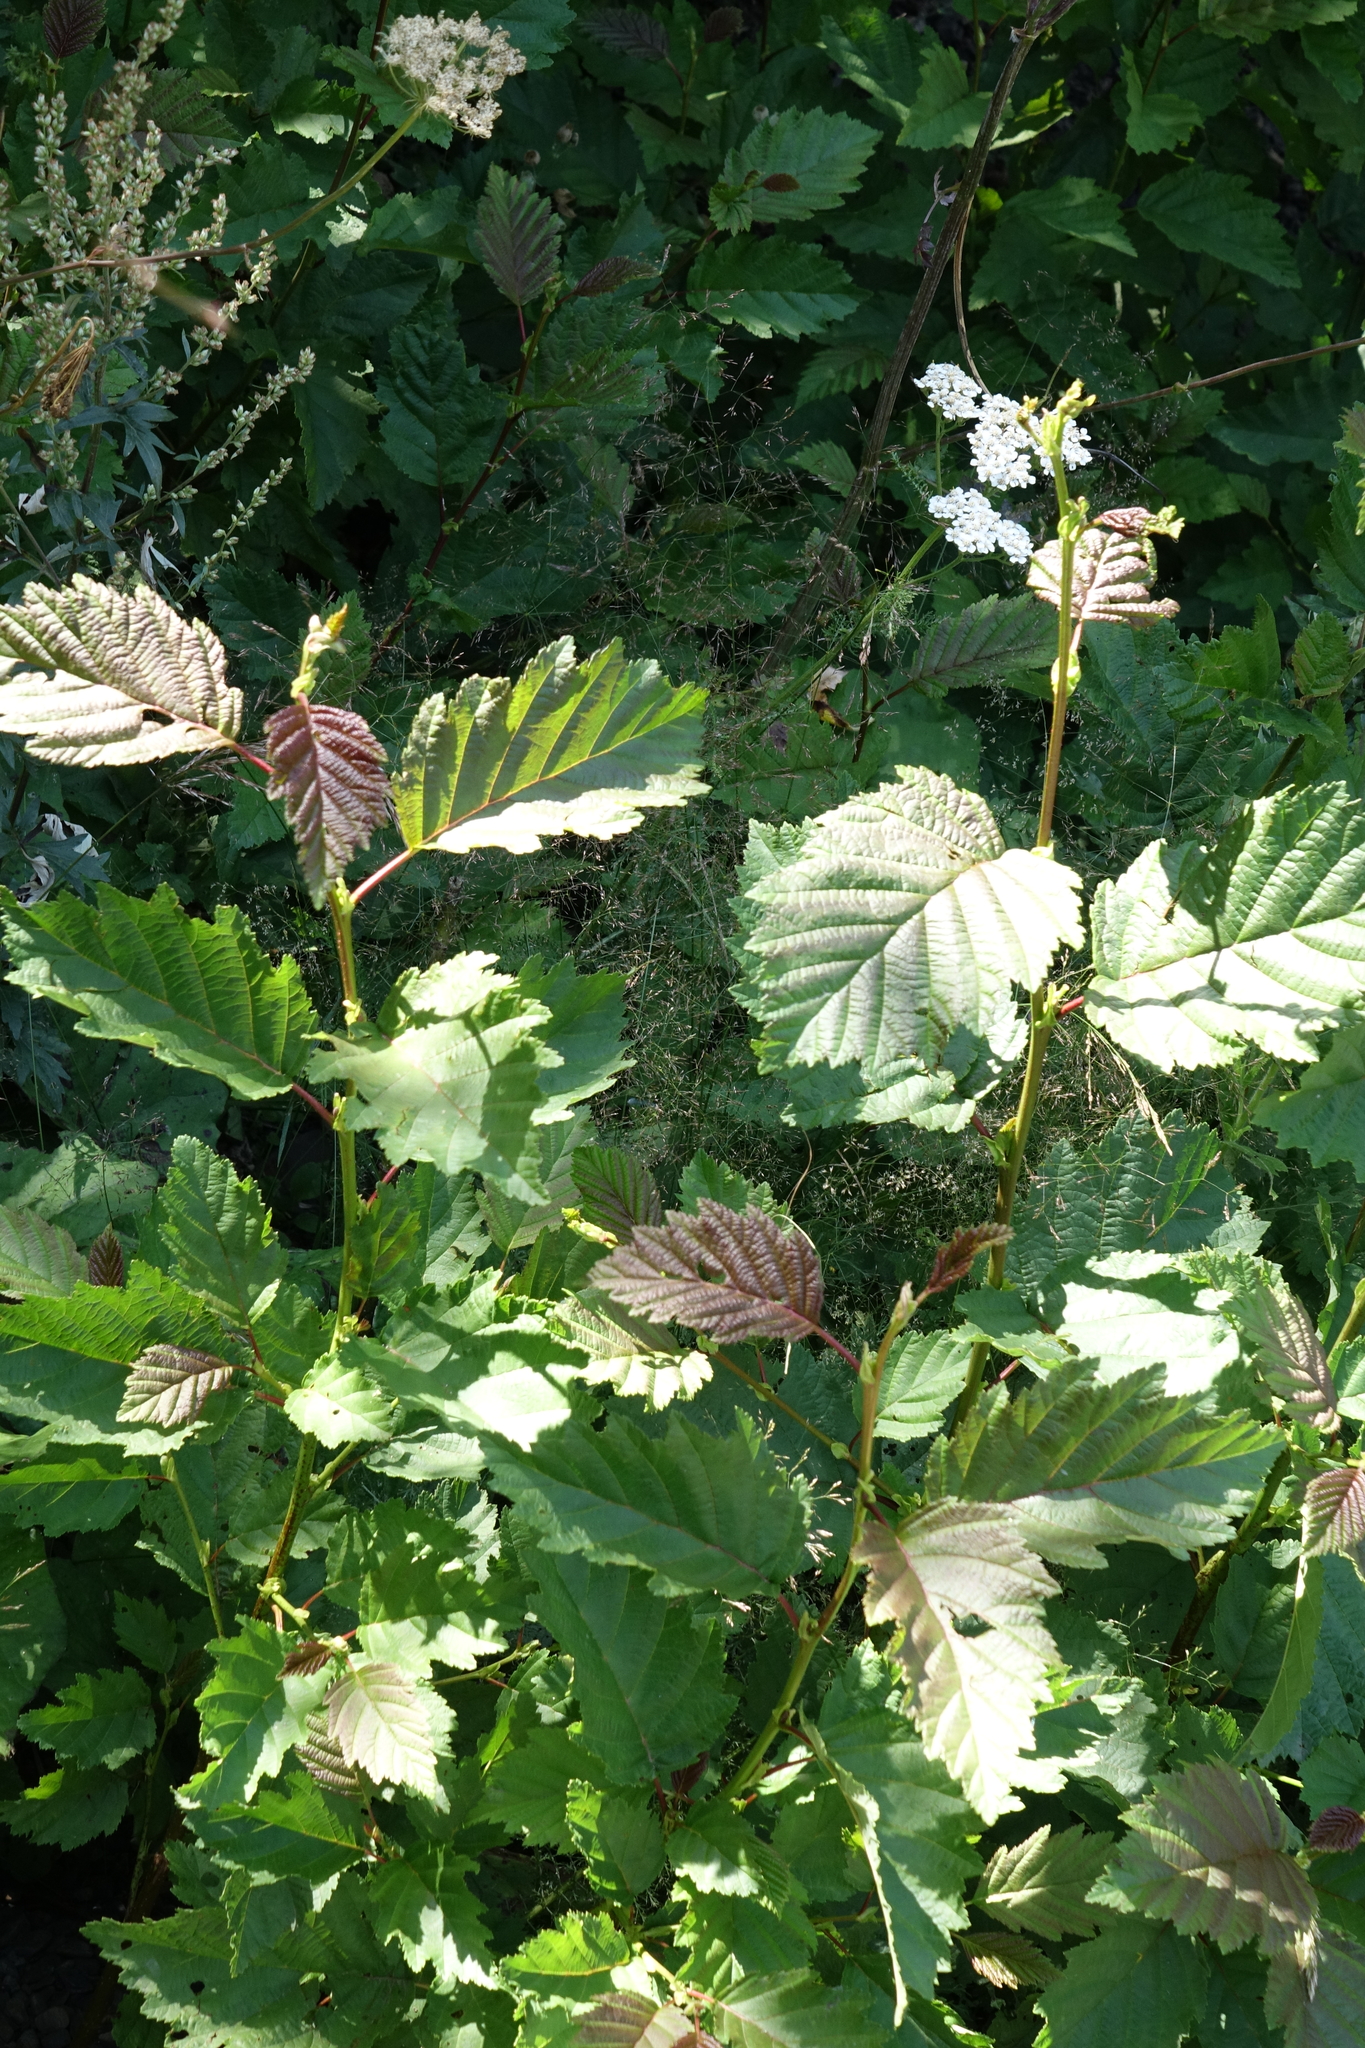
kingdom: Plantae
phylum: Tracheophyta
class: Magnoliopsida
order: Fagales
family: Betulaceae
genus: Alnus
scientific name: Alnus incana
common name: Grey alder
